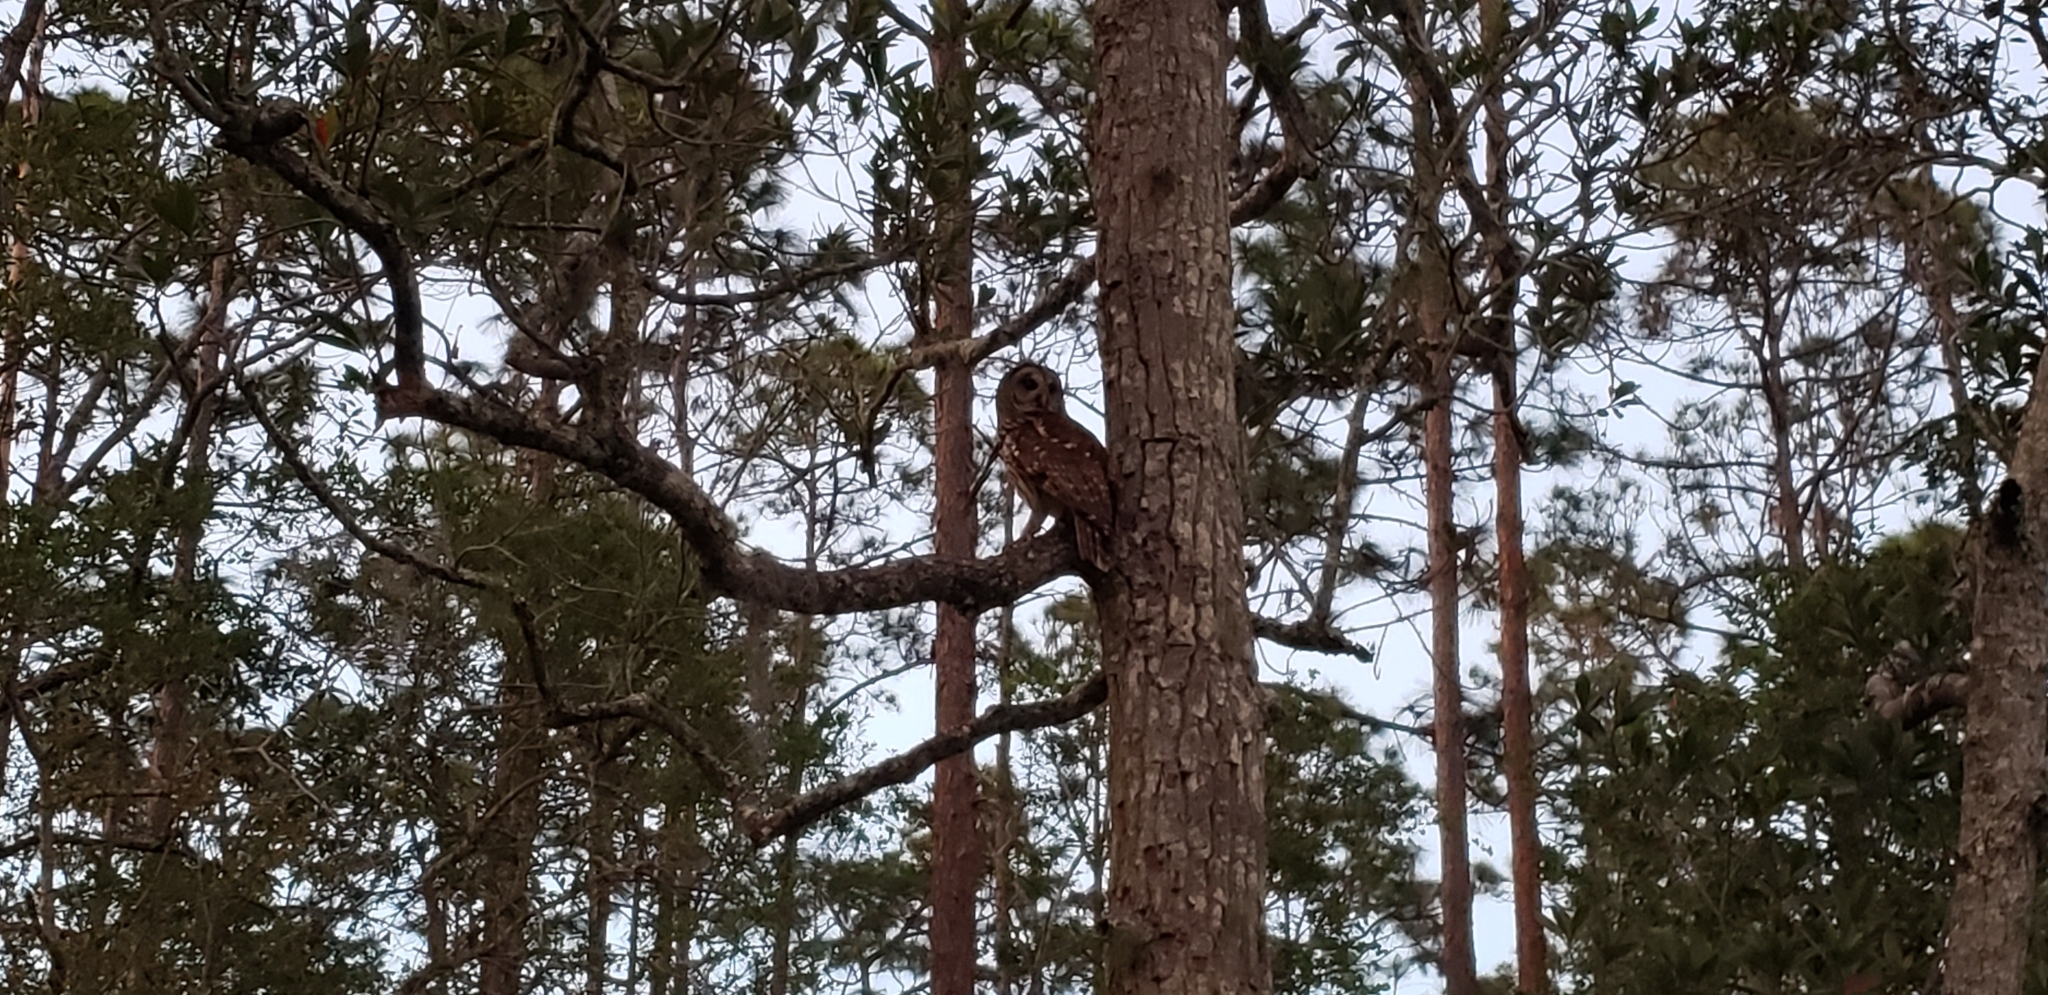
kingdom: Animalia
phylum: Chordata
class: Aves
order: Strigiformes
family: Strigidae
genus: Strix
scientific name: Strix varia
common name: Barred owl
